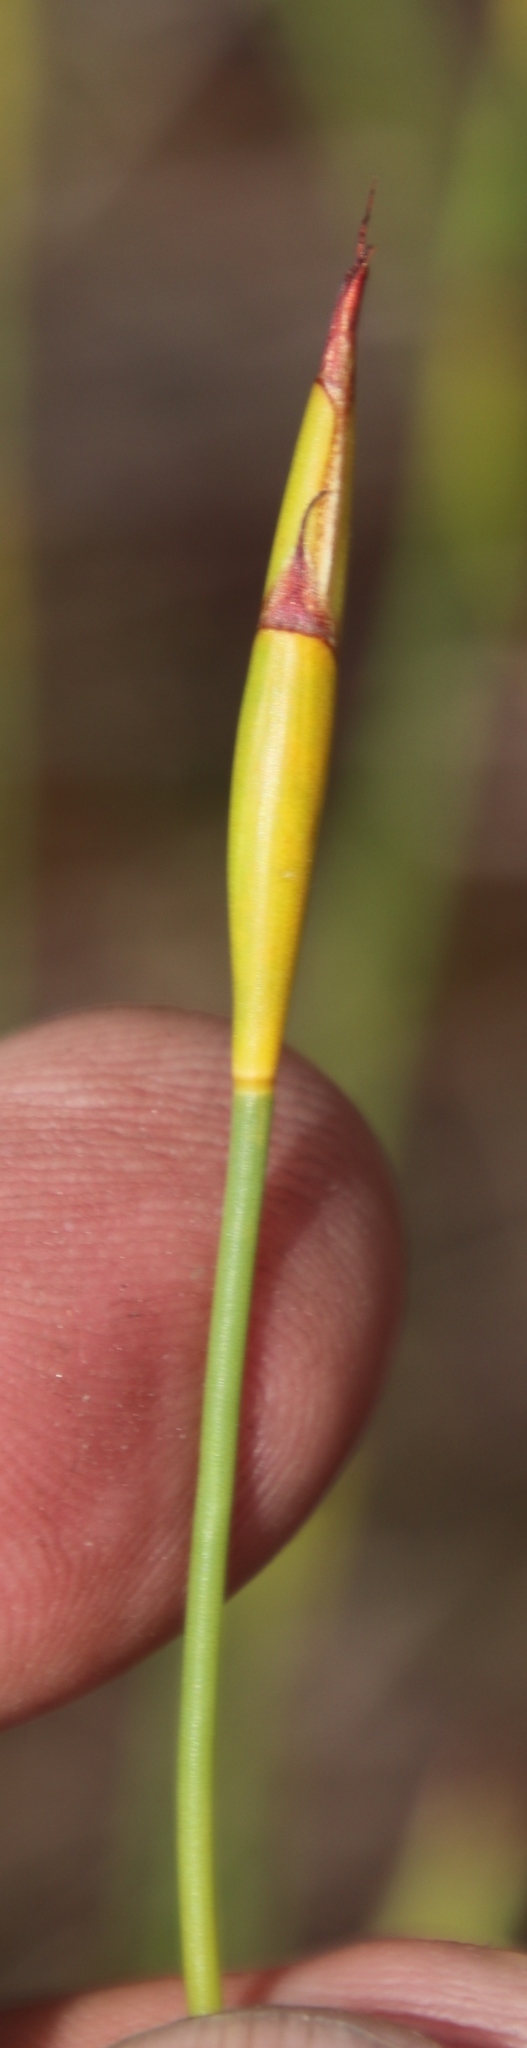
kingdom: Plantae
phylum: Tracheophyta
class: Liliopsida
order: Poales
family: Restionaceae
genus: Willdenowia
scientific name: Willdenowia sulcata
